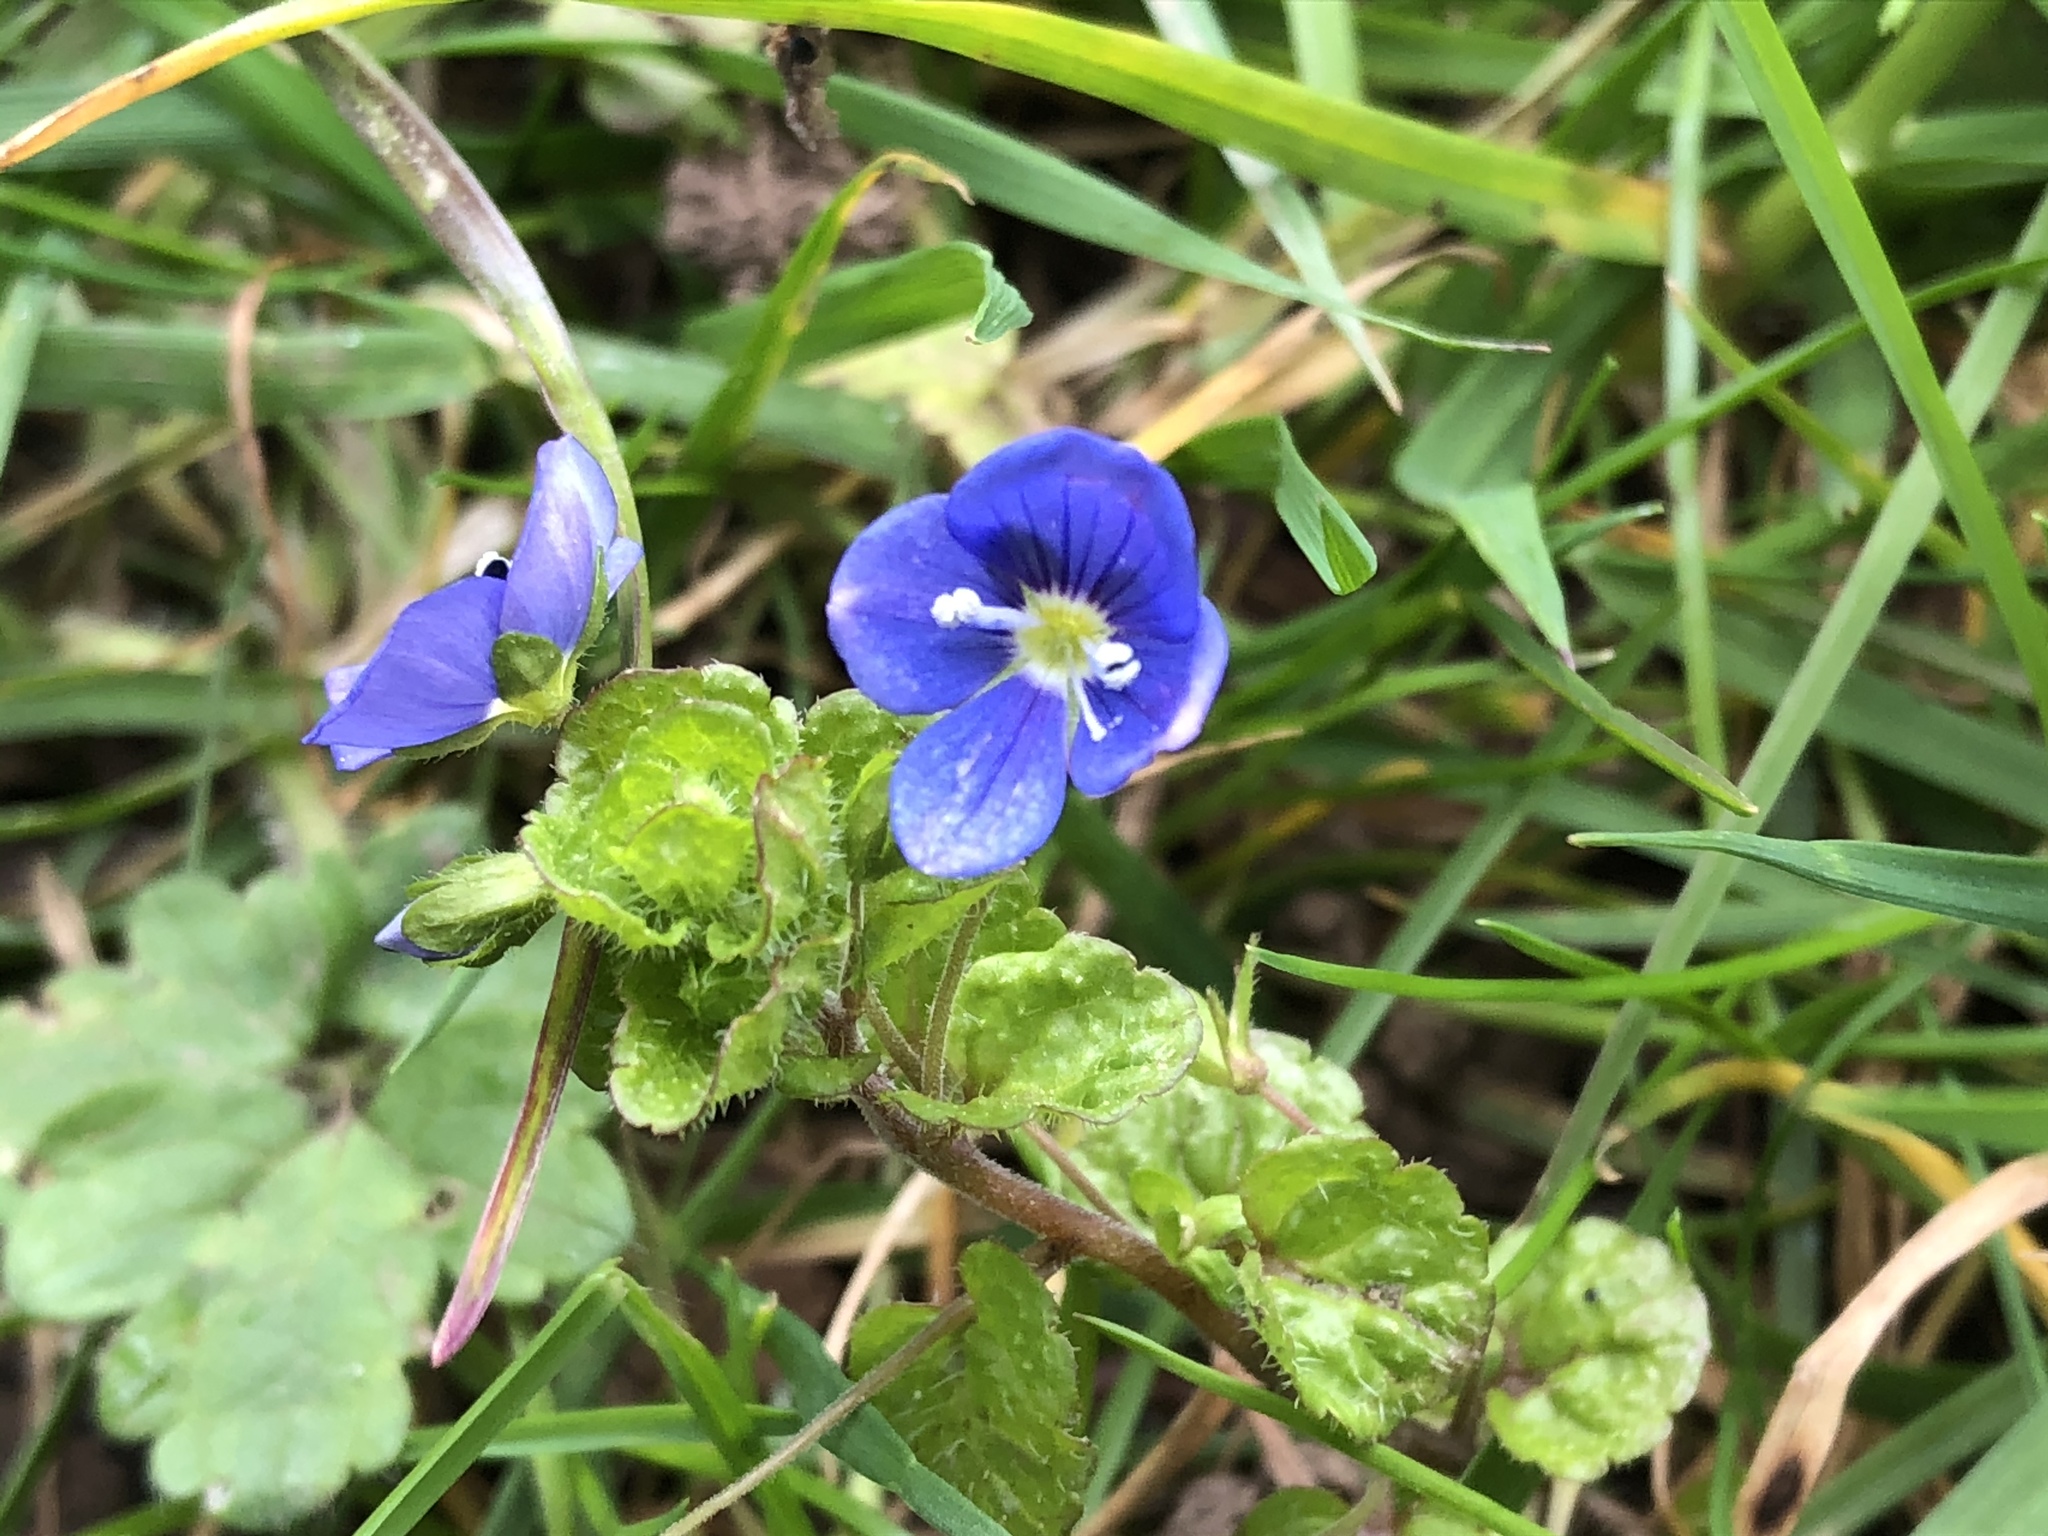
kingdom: Plantae
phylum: Tracheophyta
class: Magnoliopsida
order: Lamiales
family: Plantaginaceae
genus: Veronica
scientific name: Veronica filiformis
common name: Slender speedwell
